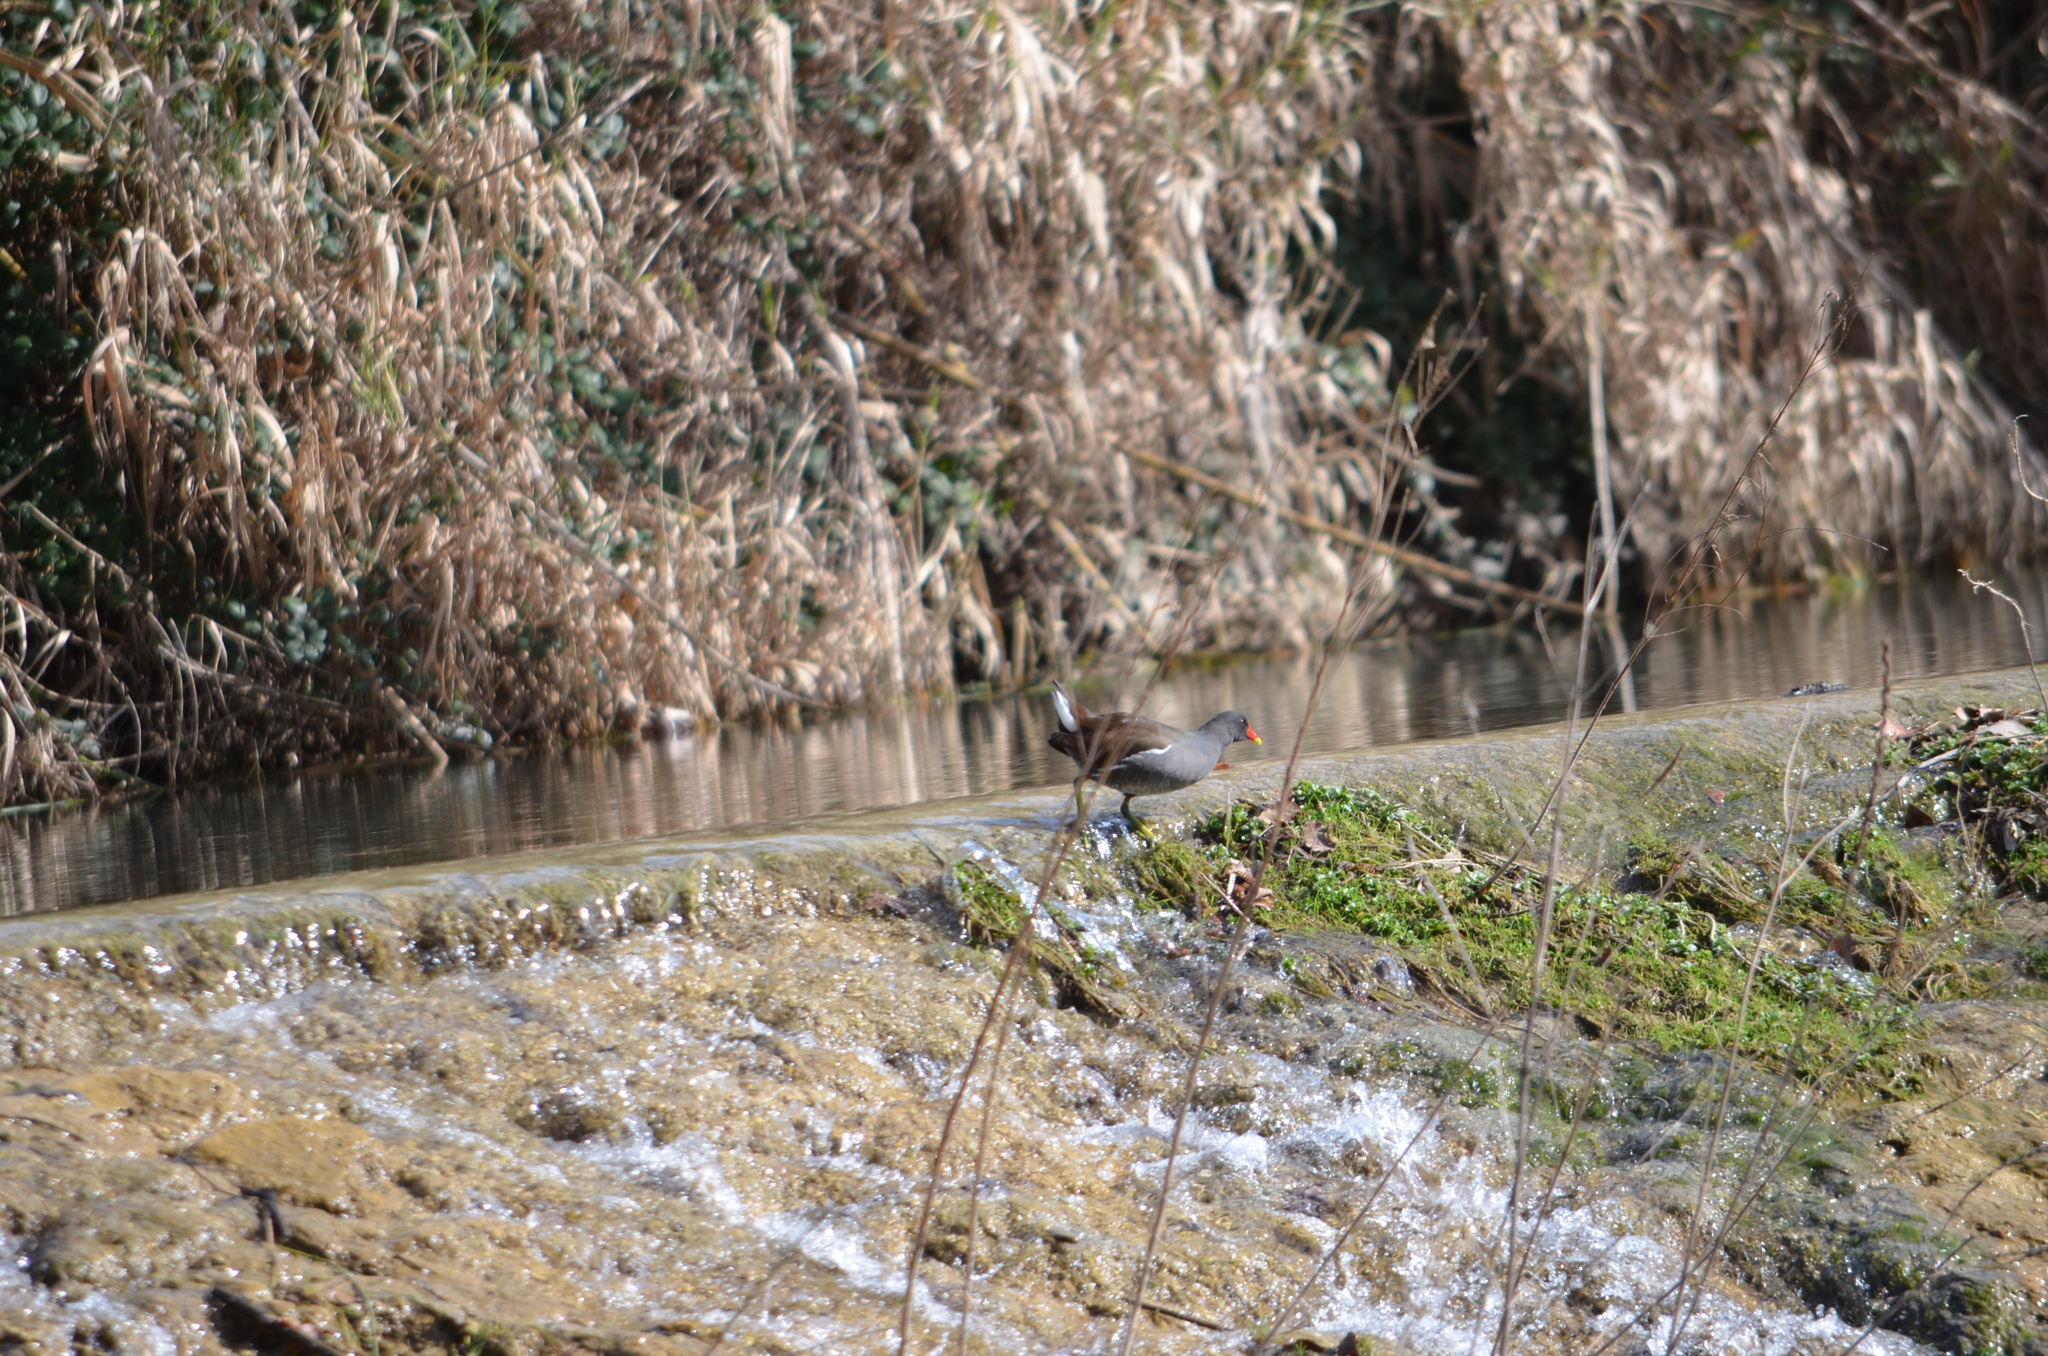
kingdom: Animalia
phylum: Chordata
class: Aves
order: Gruiformes
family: Rallidae
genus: Gallinula
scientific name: Gallinula chloropus
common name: Common moorhen
